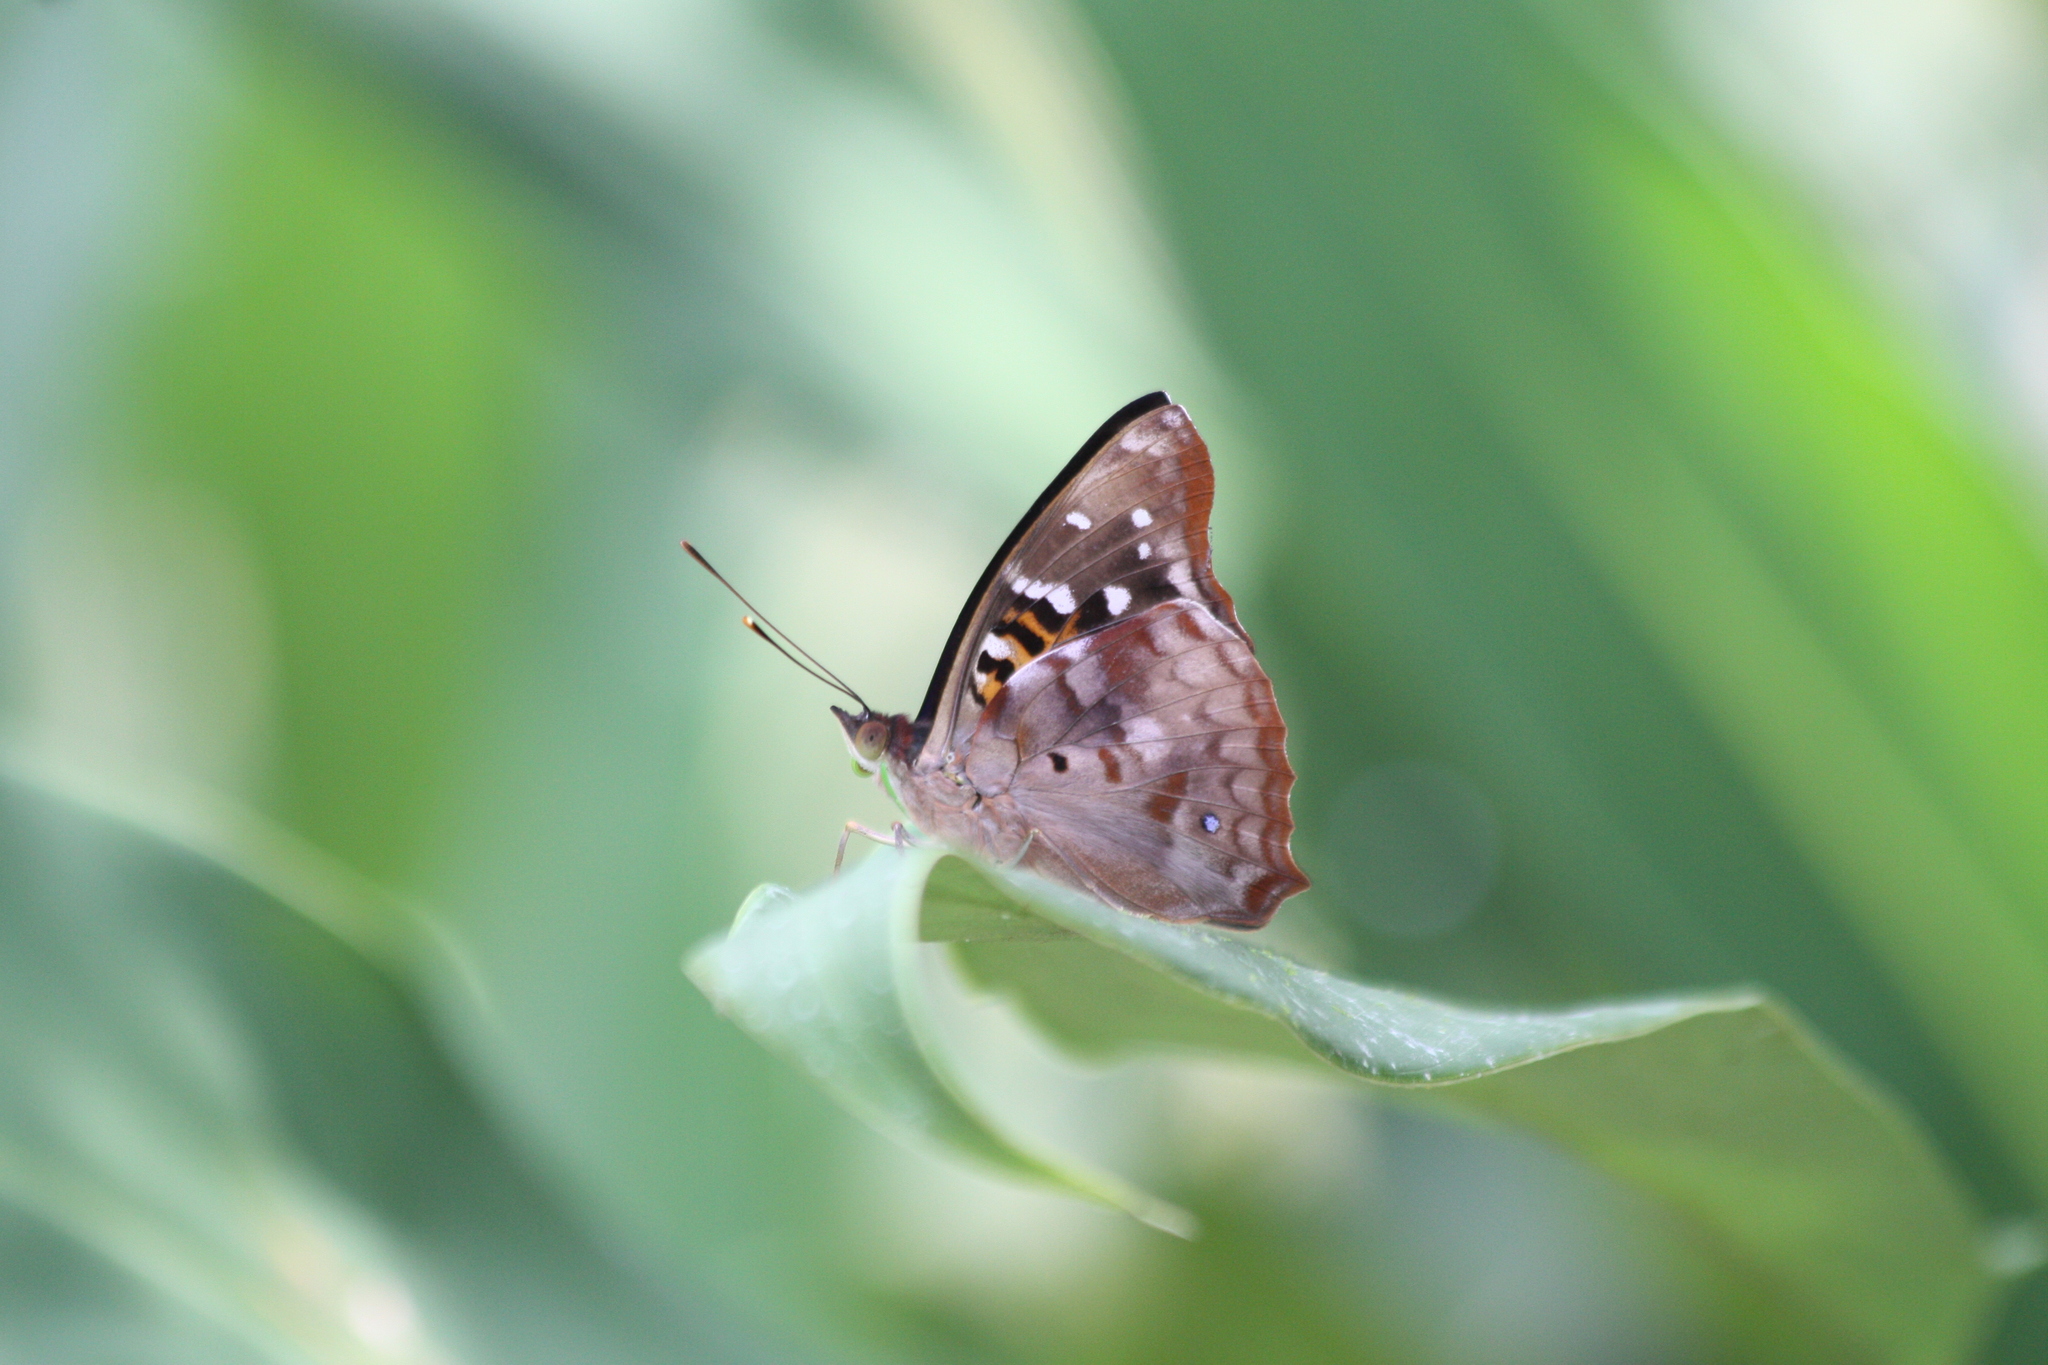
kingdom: Animalia
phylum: Arthropoda
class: Insecta
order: Lepidoptera
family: Nymphalidae
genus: Doxocopa
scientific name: Doxocopa agathina
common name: Agathina emperor
